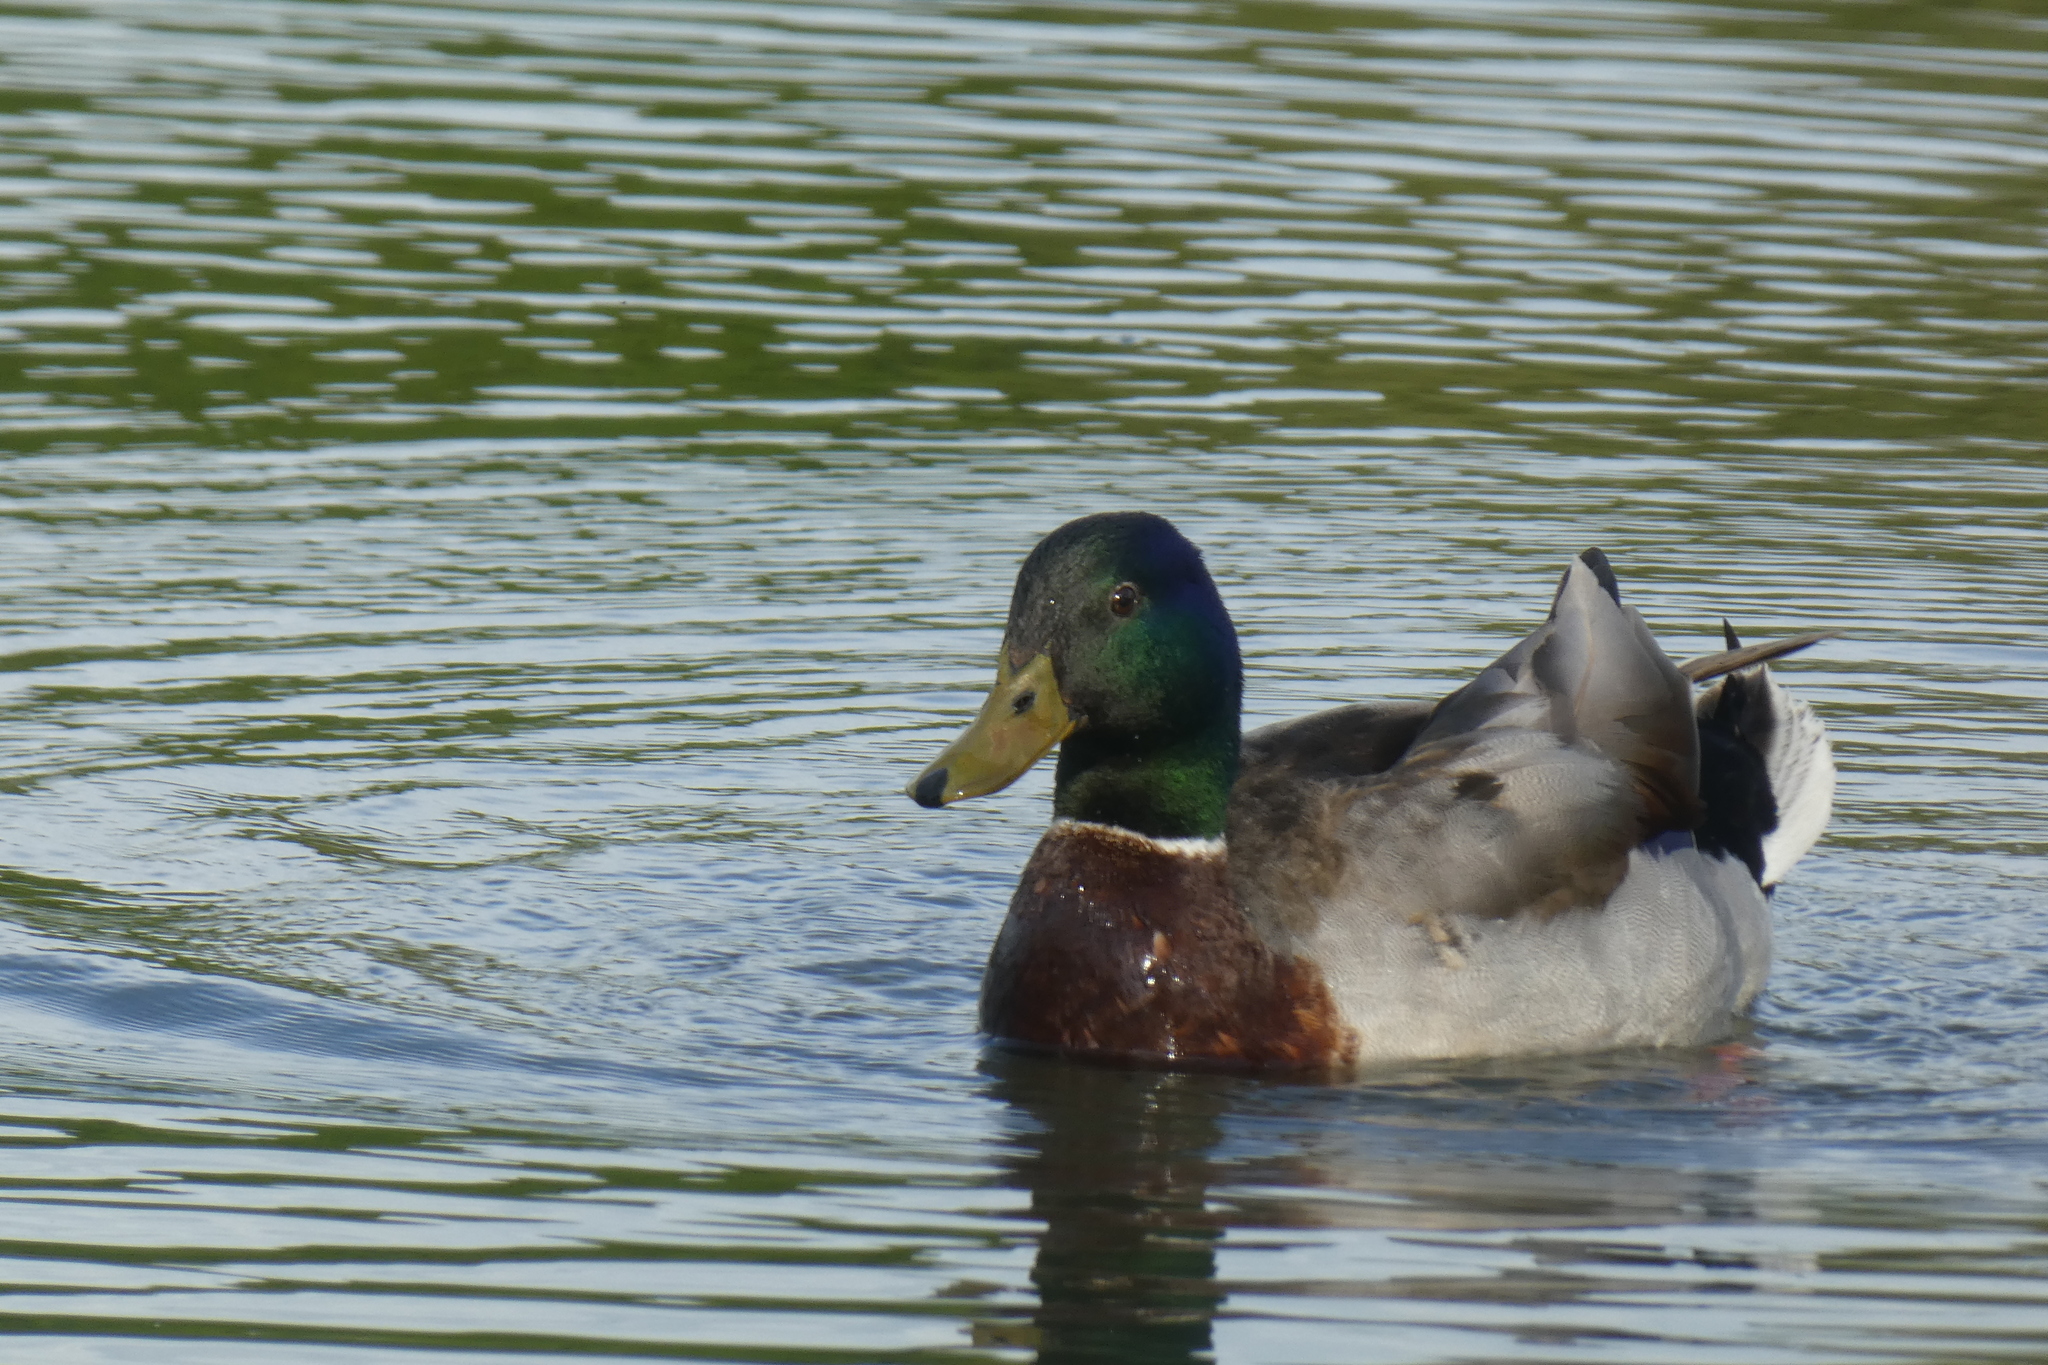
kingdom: Animalia
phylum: Chordata
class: Aves
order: Anseriformes
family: Anatidae
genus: Anas
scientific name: Anas platyrhynchos
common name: Mallard
